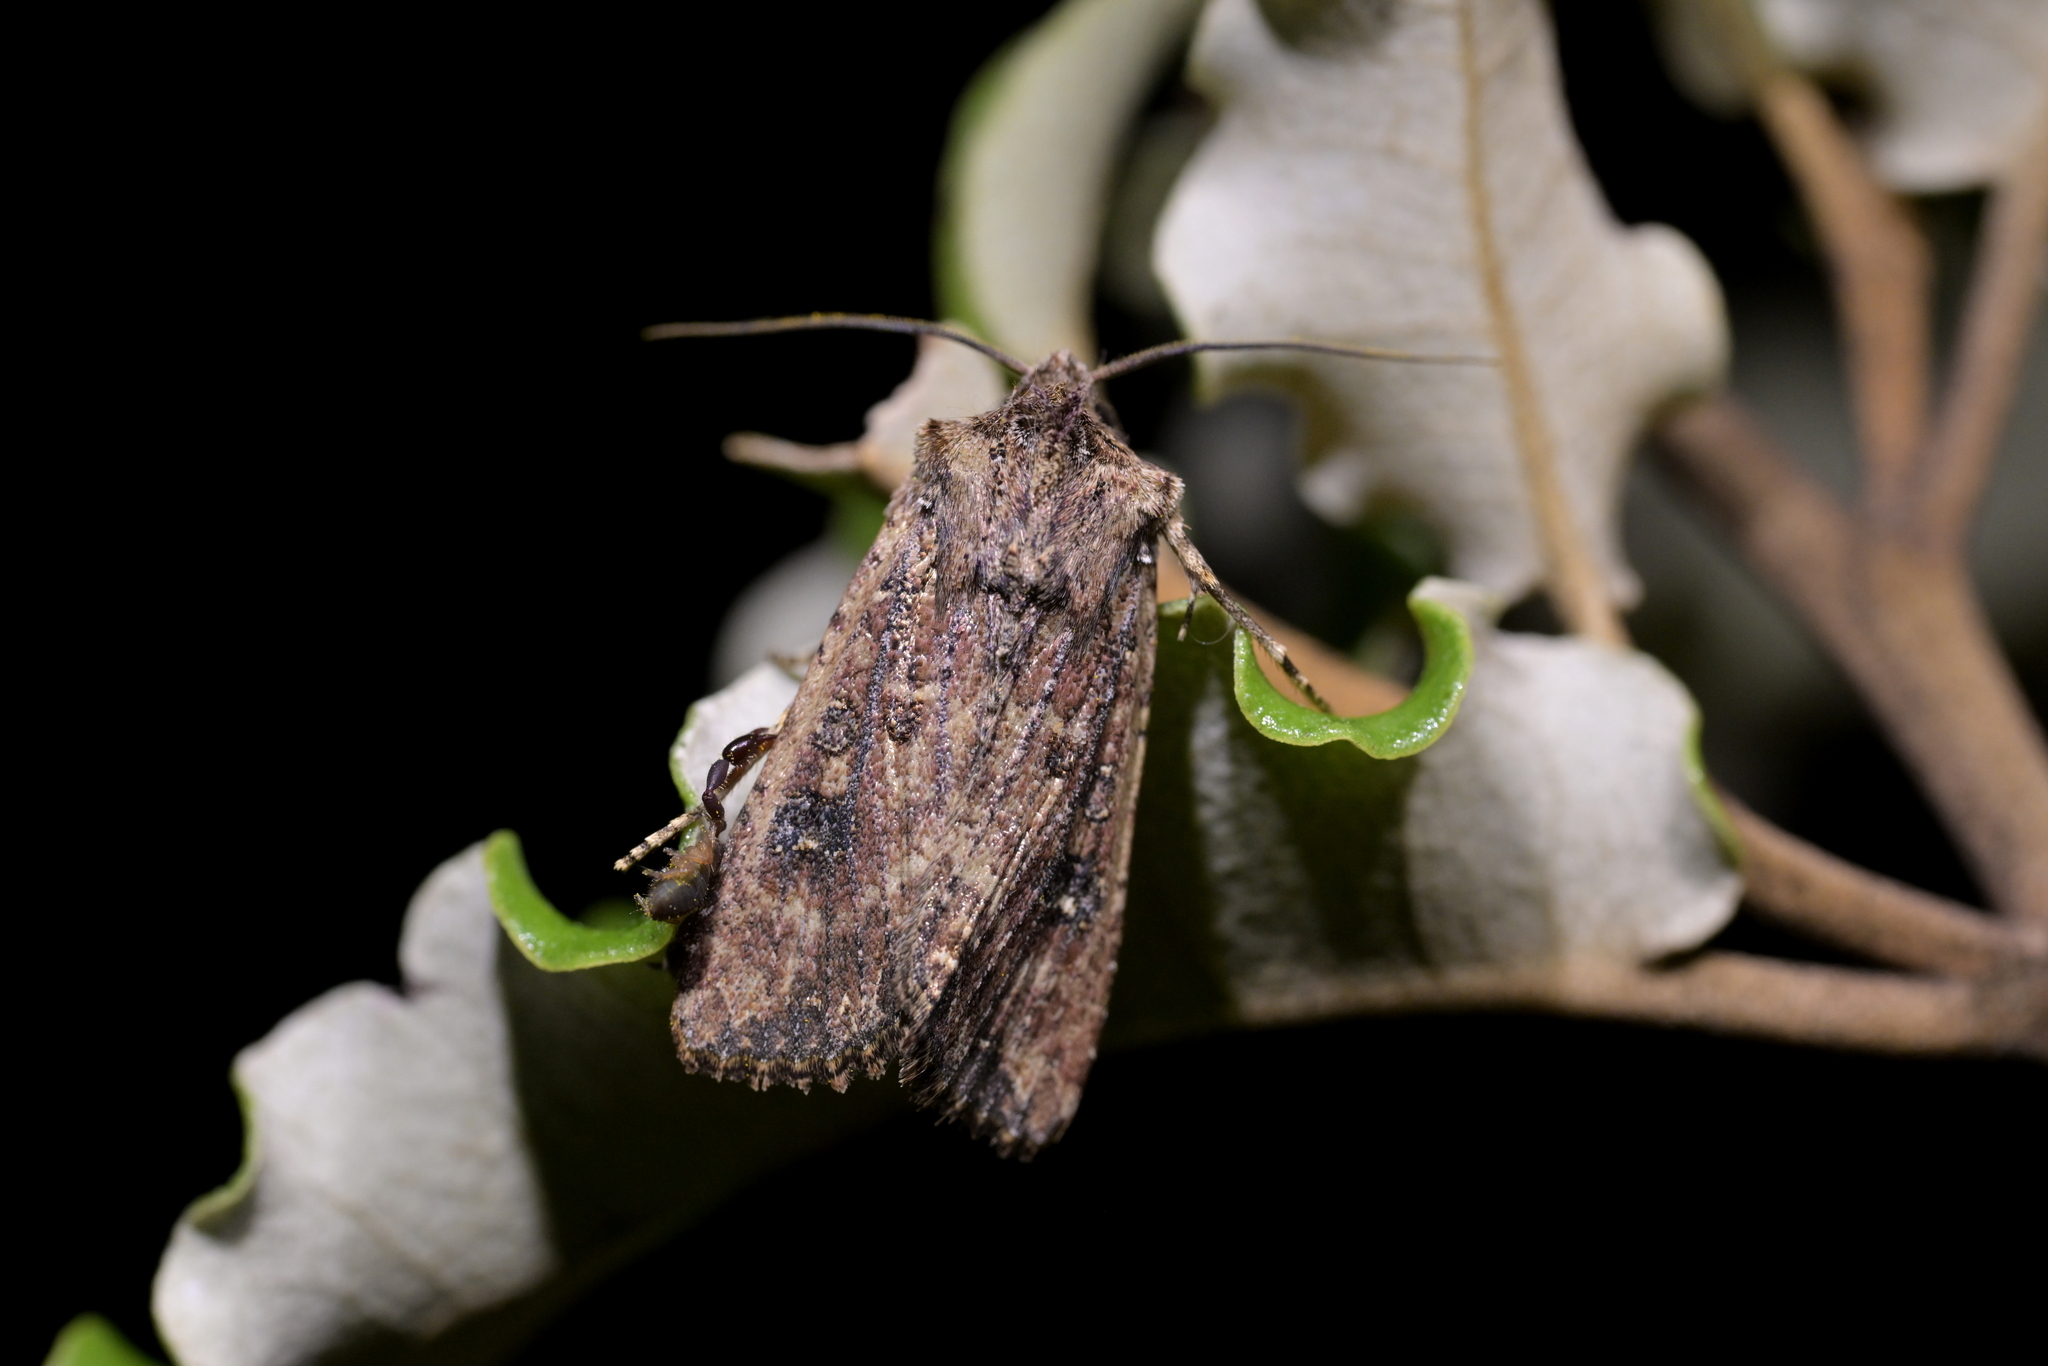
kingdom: Animalia
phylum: Arthropoda
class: Insecta
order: Lepidoptera
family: Noctuidae
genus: Ichneutica
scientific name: Ichneutica morosa
